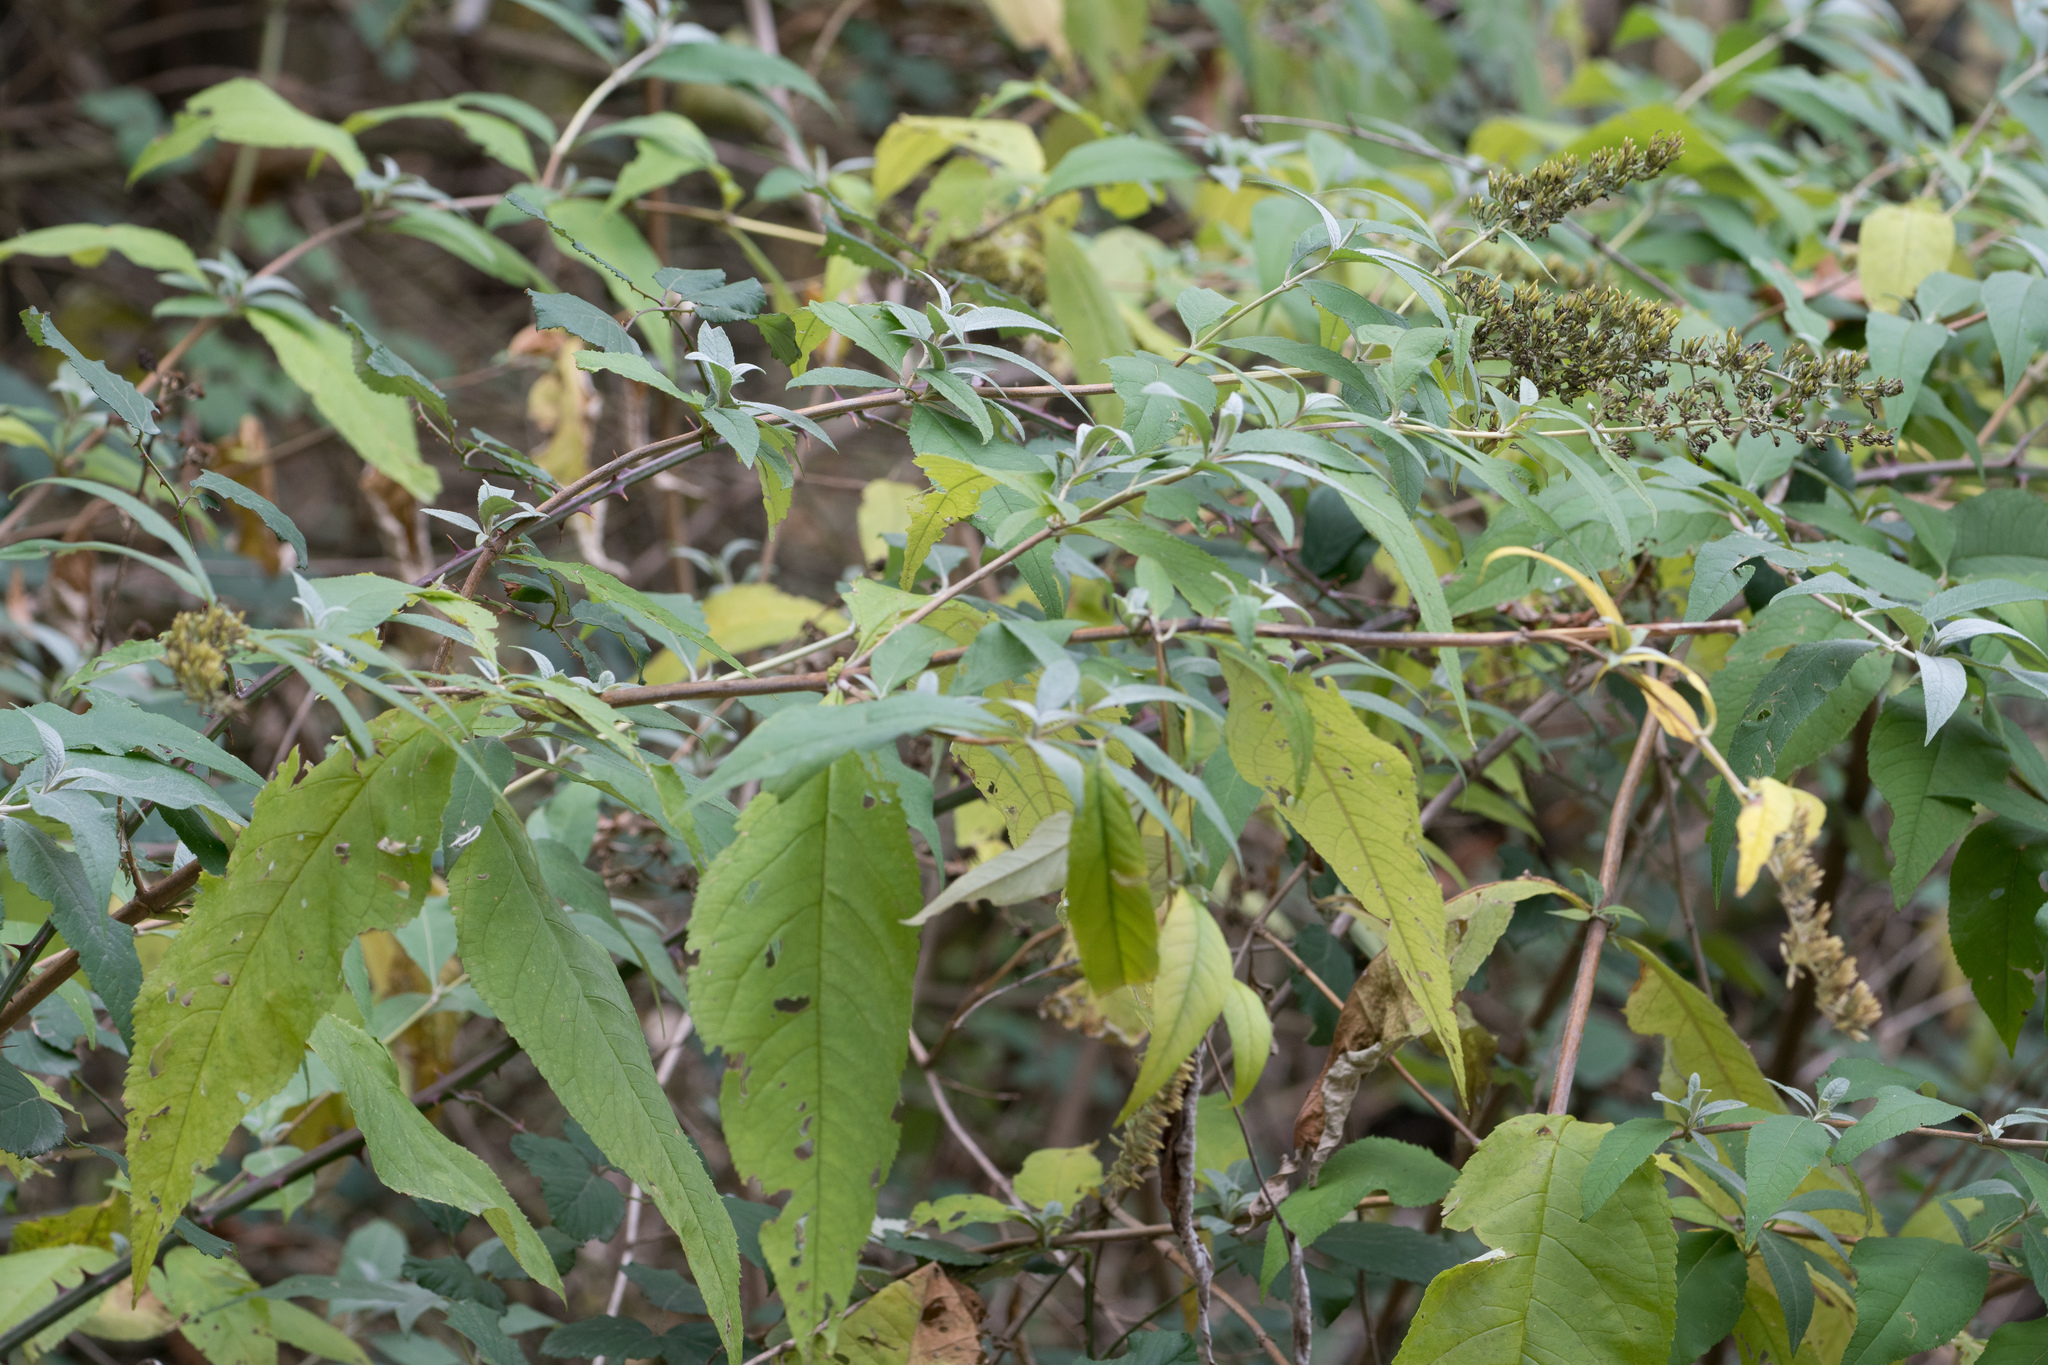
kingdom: Plantae
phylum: Tracheophyta
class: Magnoliopsida
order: Lamiales
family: Scrophulariaceae
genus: Buddleja
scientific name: Buddleja davidii
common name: Butterfly-bush
